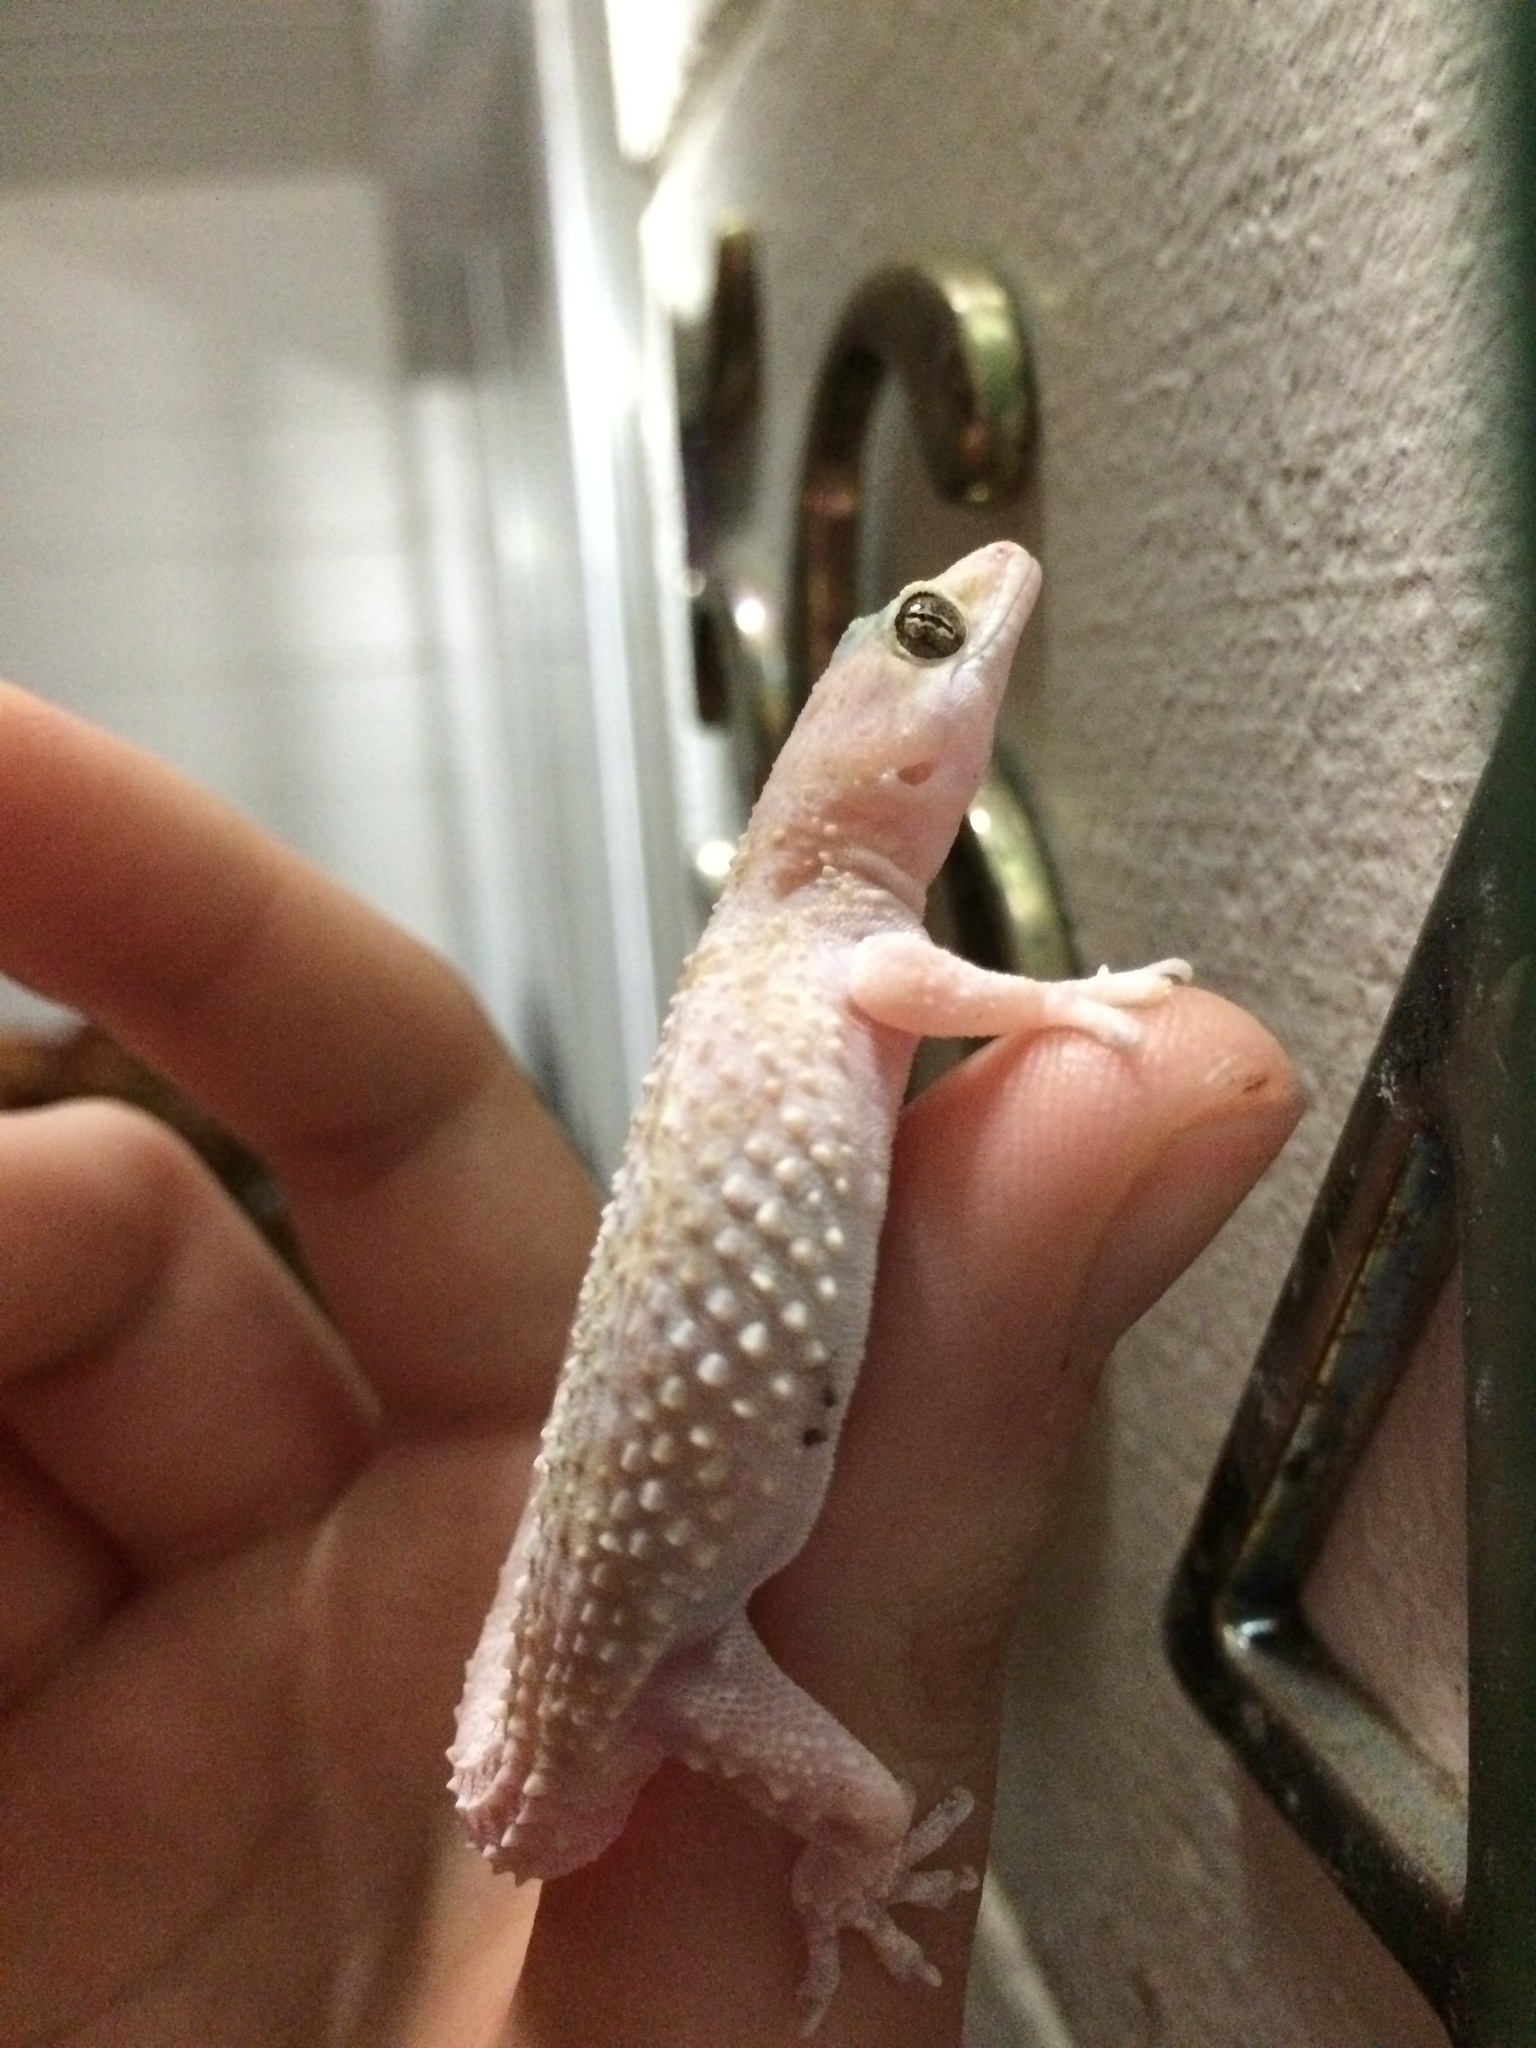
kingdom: Animalia
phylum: Chordata
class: Squamata
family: Gekkonidae
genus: Hemidactylus
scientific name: Hemidactylus turcicus
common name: Turkish gecko
